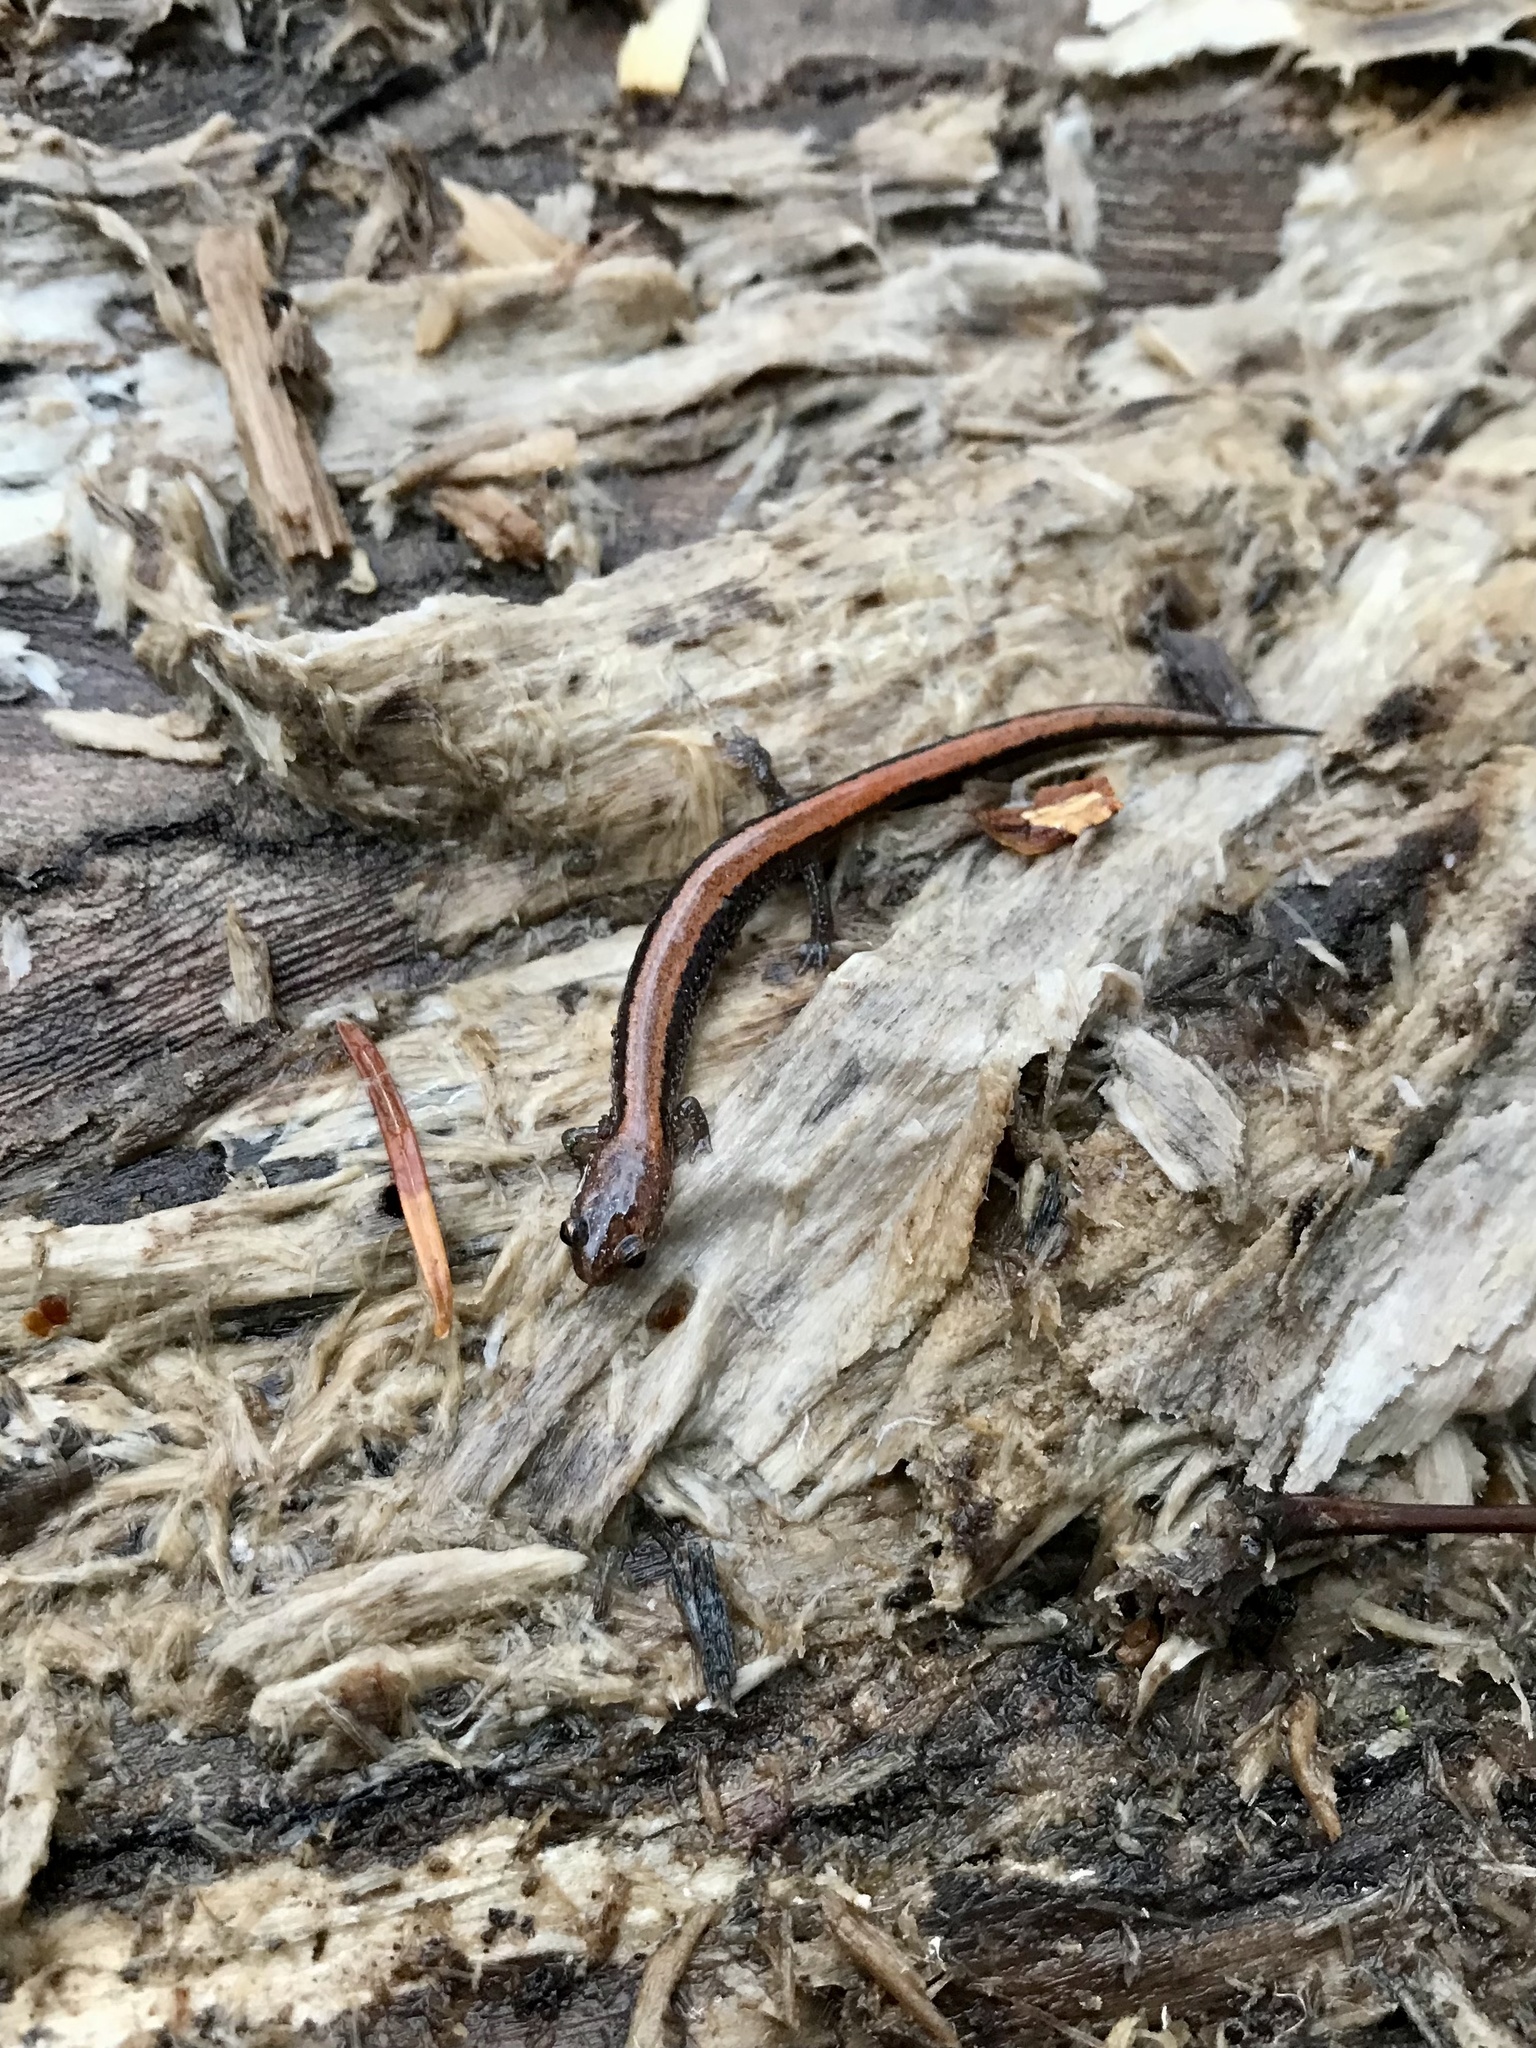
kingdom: Animalia
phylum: Chordata
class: Amphibia
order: Caudata
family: Plethodontidae
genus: Plethodon
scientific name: Plethodon cinereus
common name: Redback salamander
